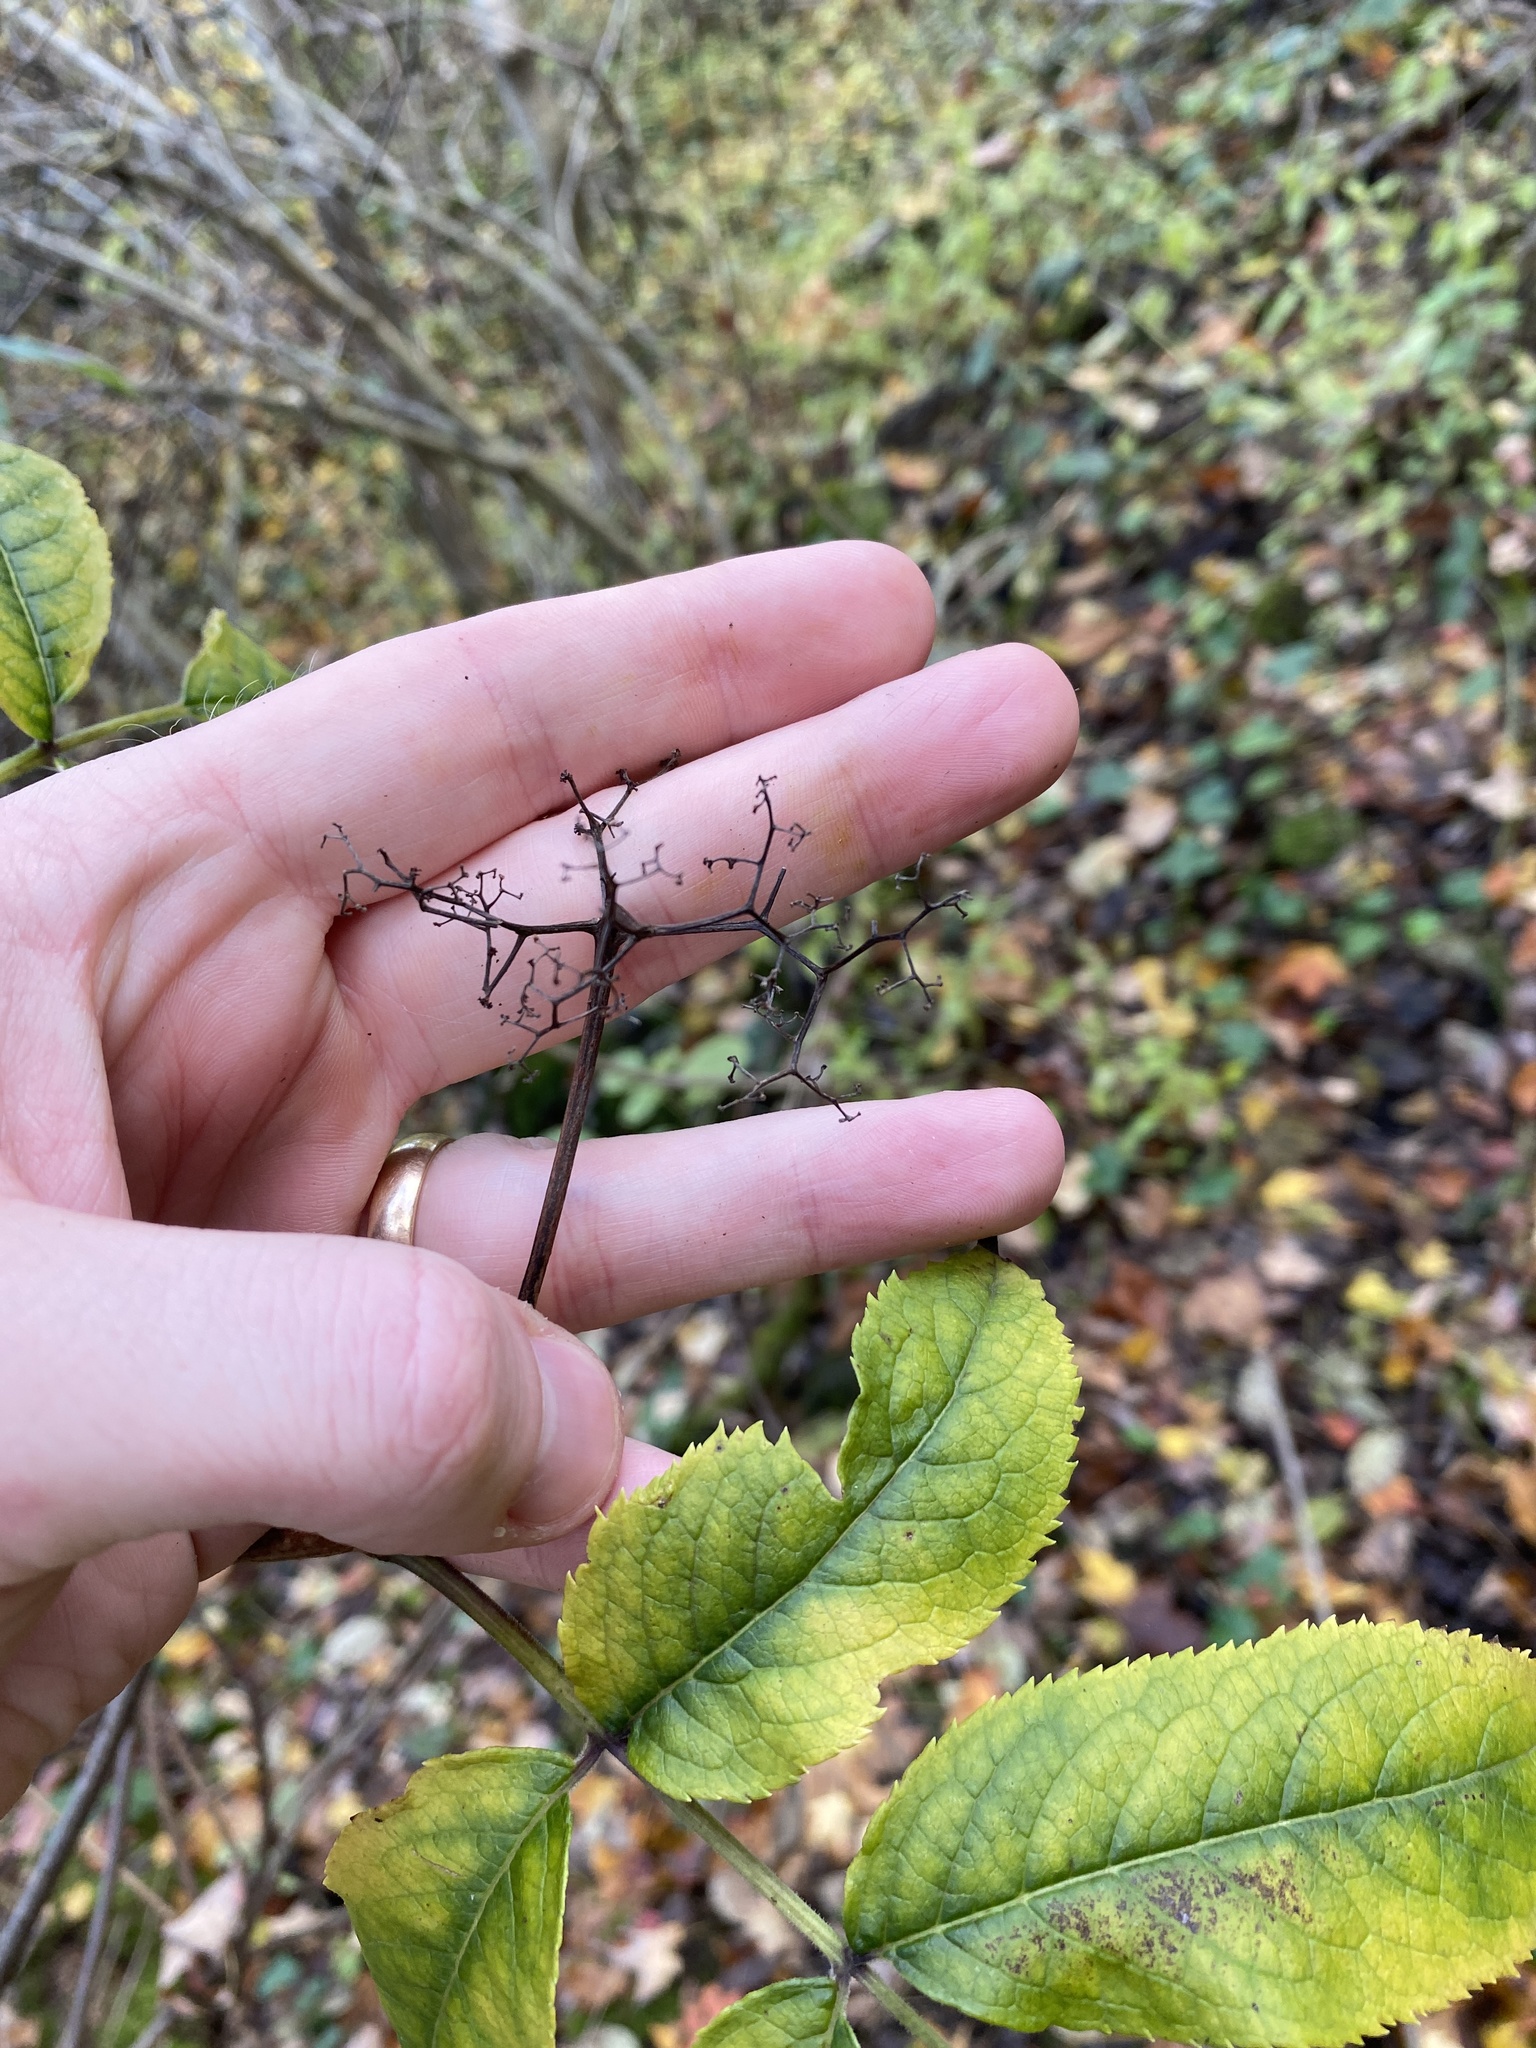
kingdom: Plantae
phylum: Tracheophyta
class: Magnoliopsida
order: Dipsacales
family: Viburnaceae
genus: Sambucus
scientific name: Sambucus racemosa
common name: Red-berried elder
